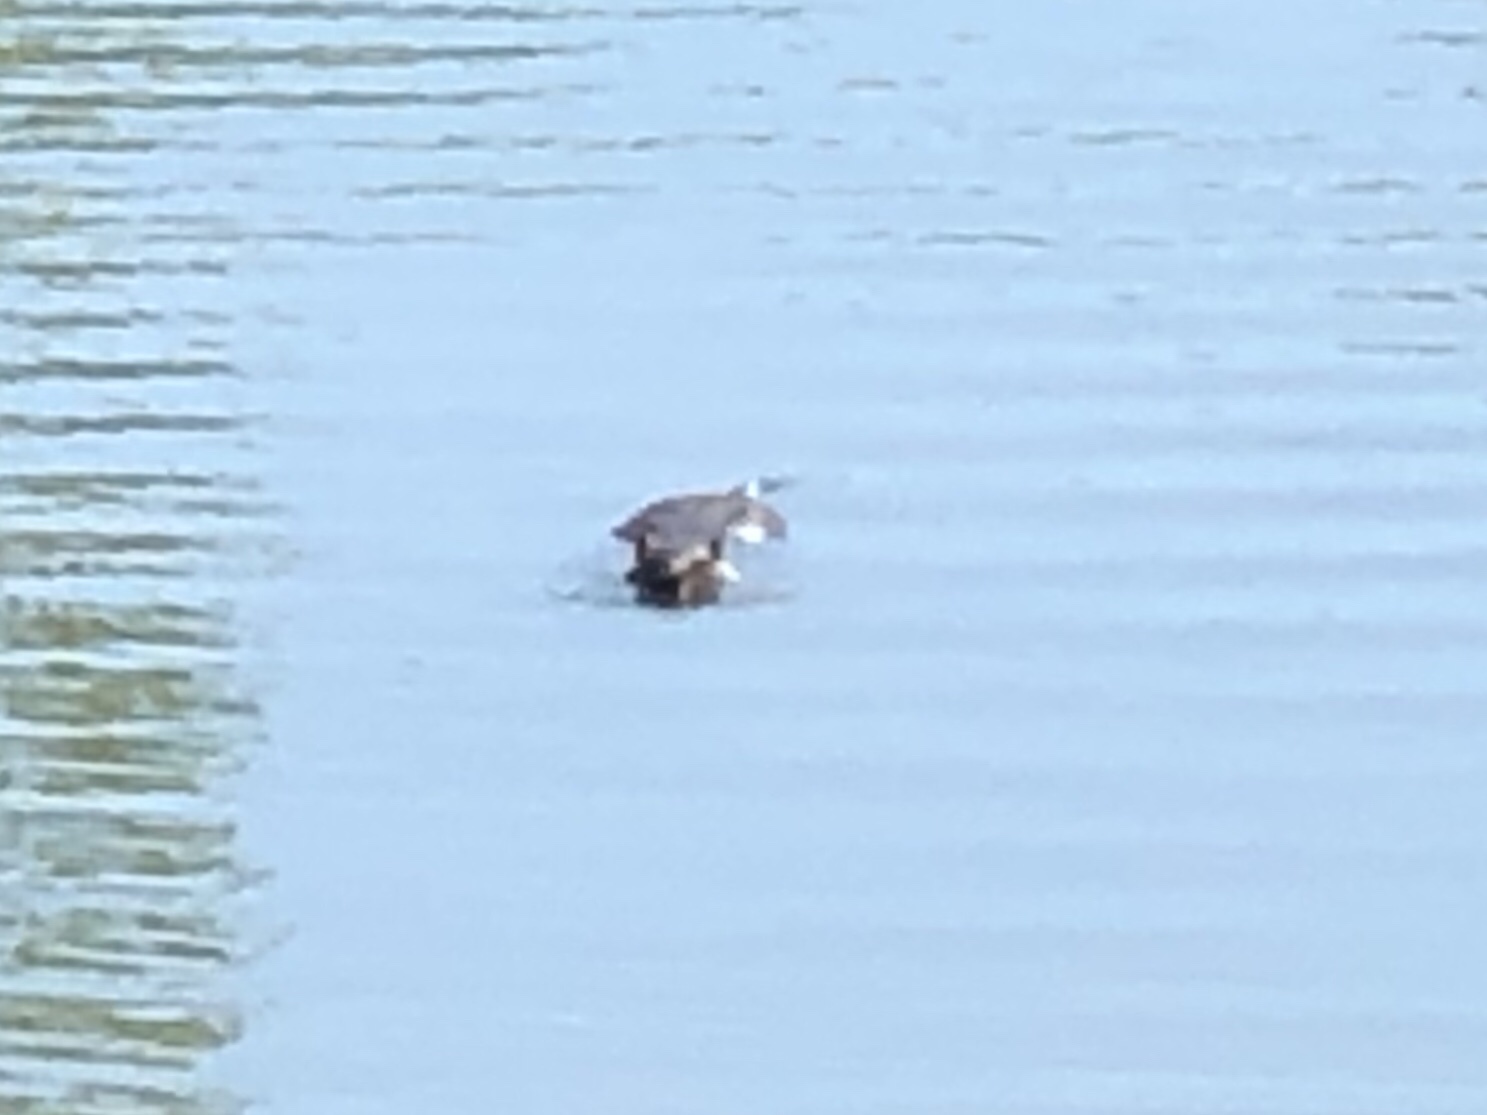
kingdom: Animalia
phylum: Chordata
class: Mammalia
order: Rodentia
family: Myocastoridae
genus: Myocastor
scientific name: Myocastor coypus
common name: Coypu
